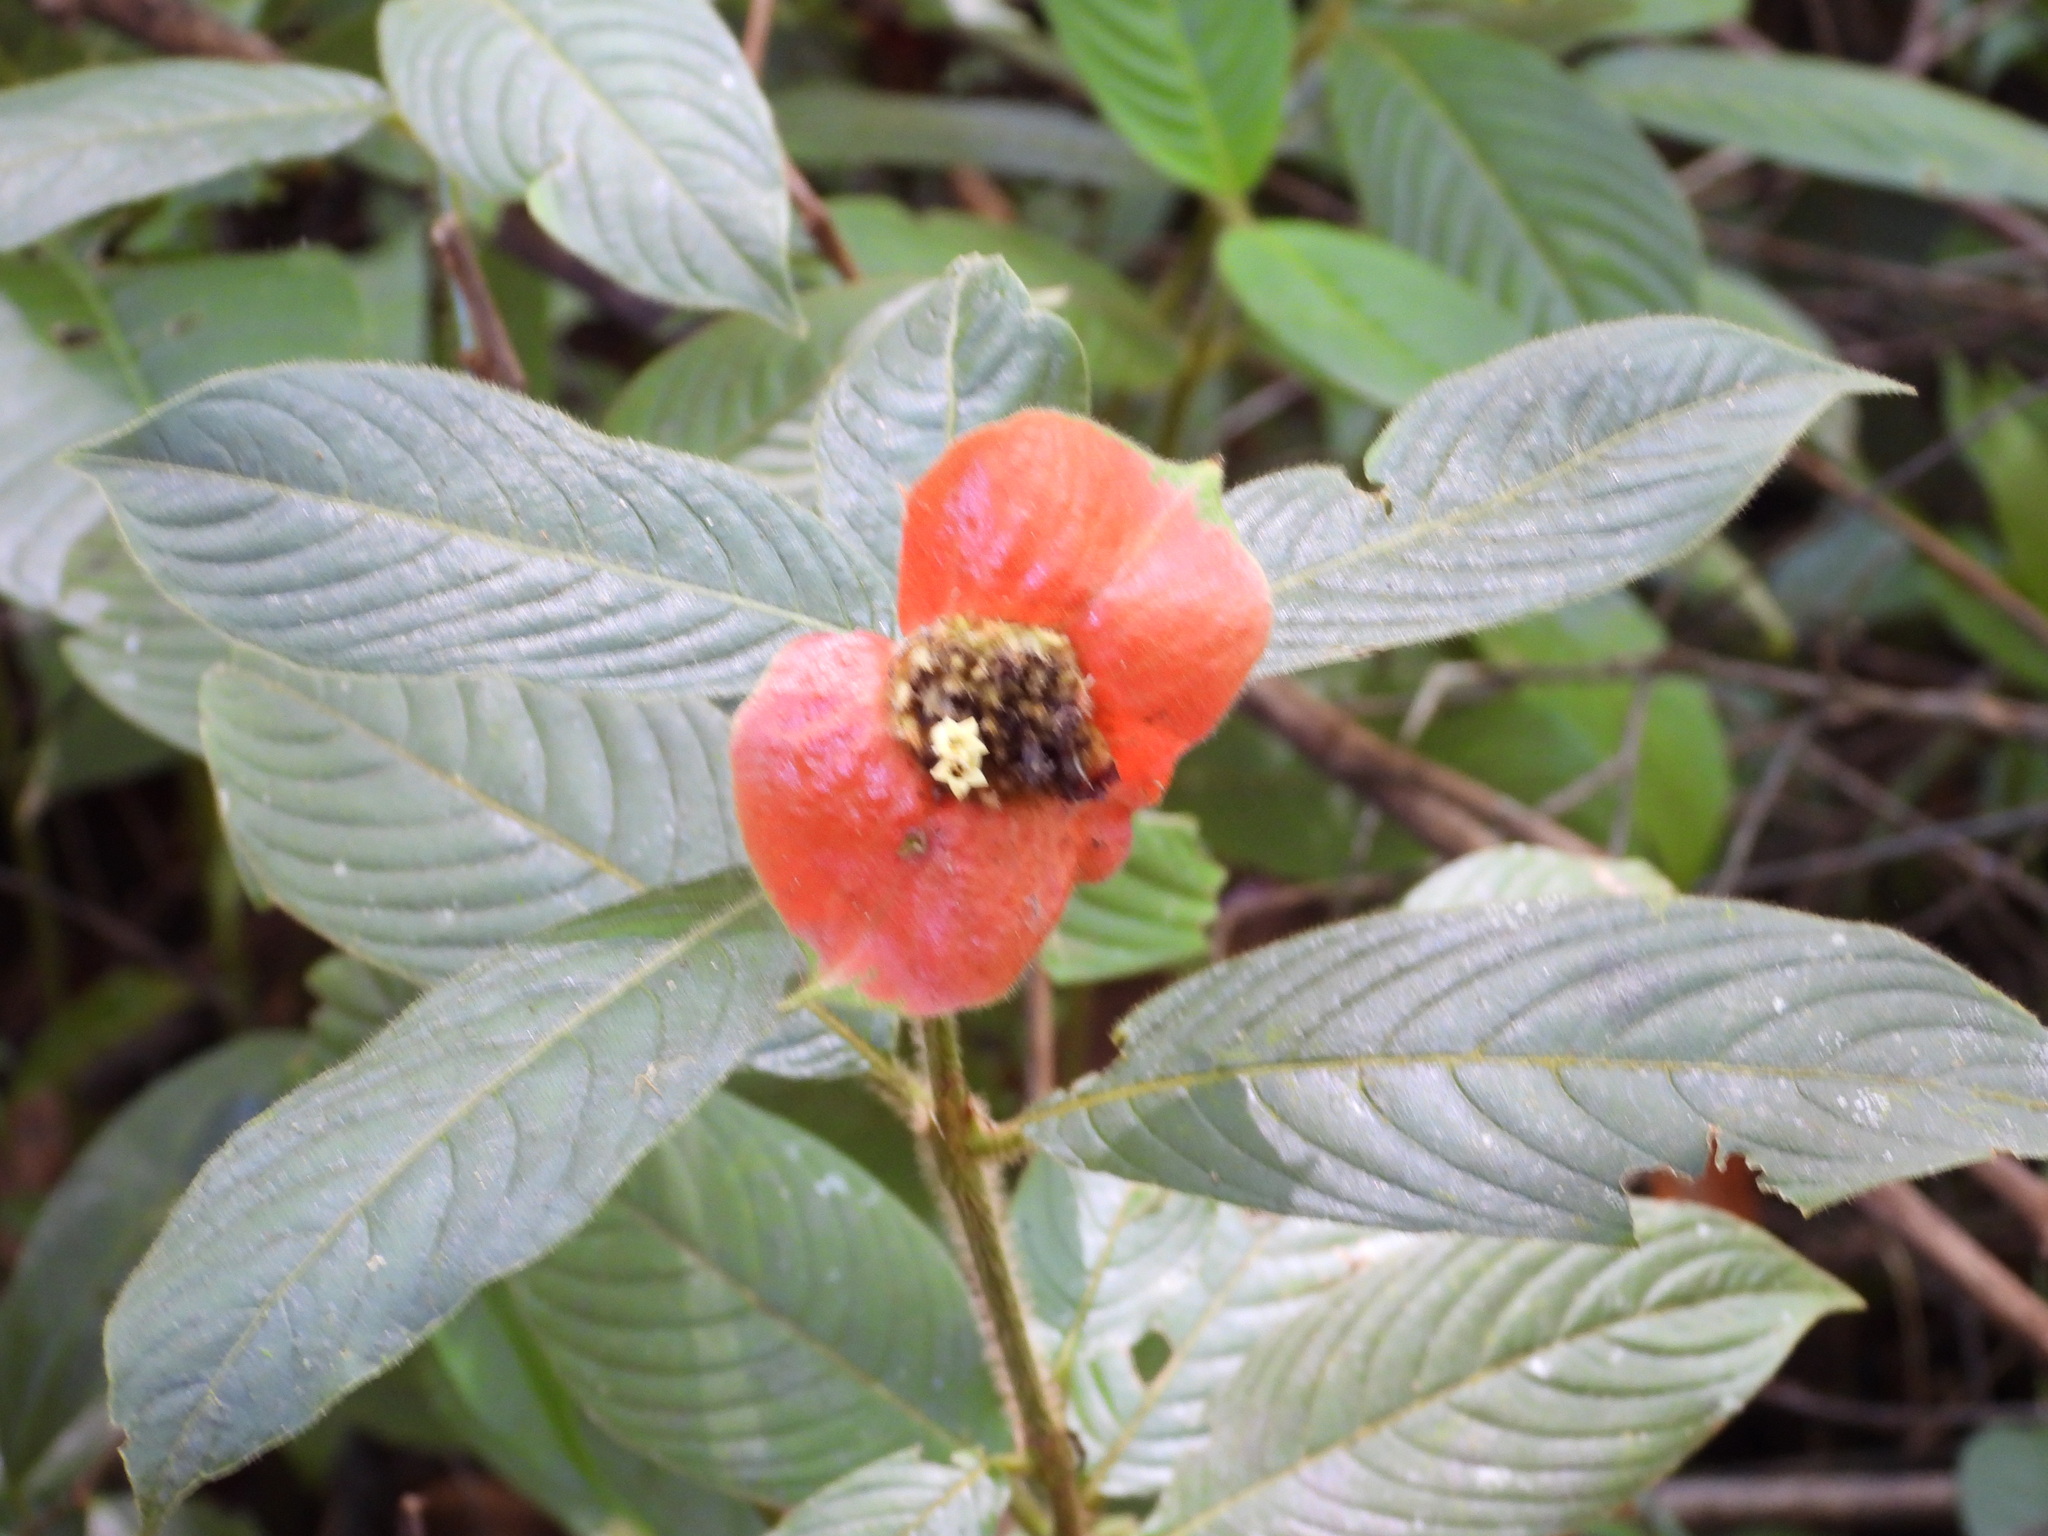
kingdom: Plantae
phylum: Tracheophyta
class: Magnoliopsida
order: Gentianales
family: Rubiaceae
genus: Palicourea
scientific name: Palicourea tomentosa
